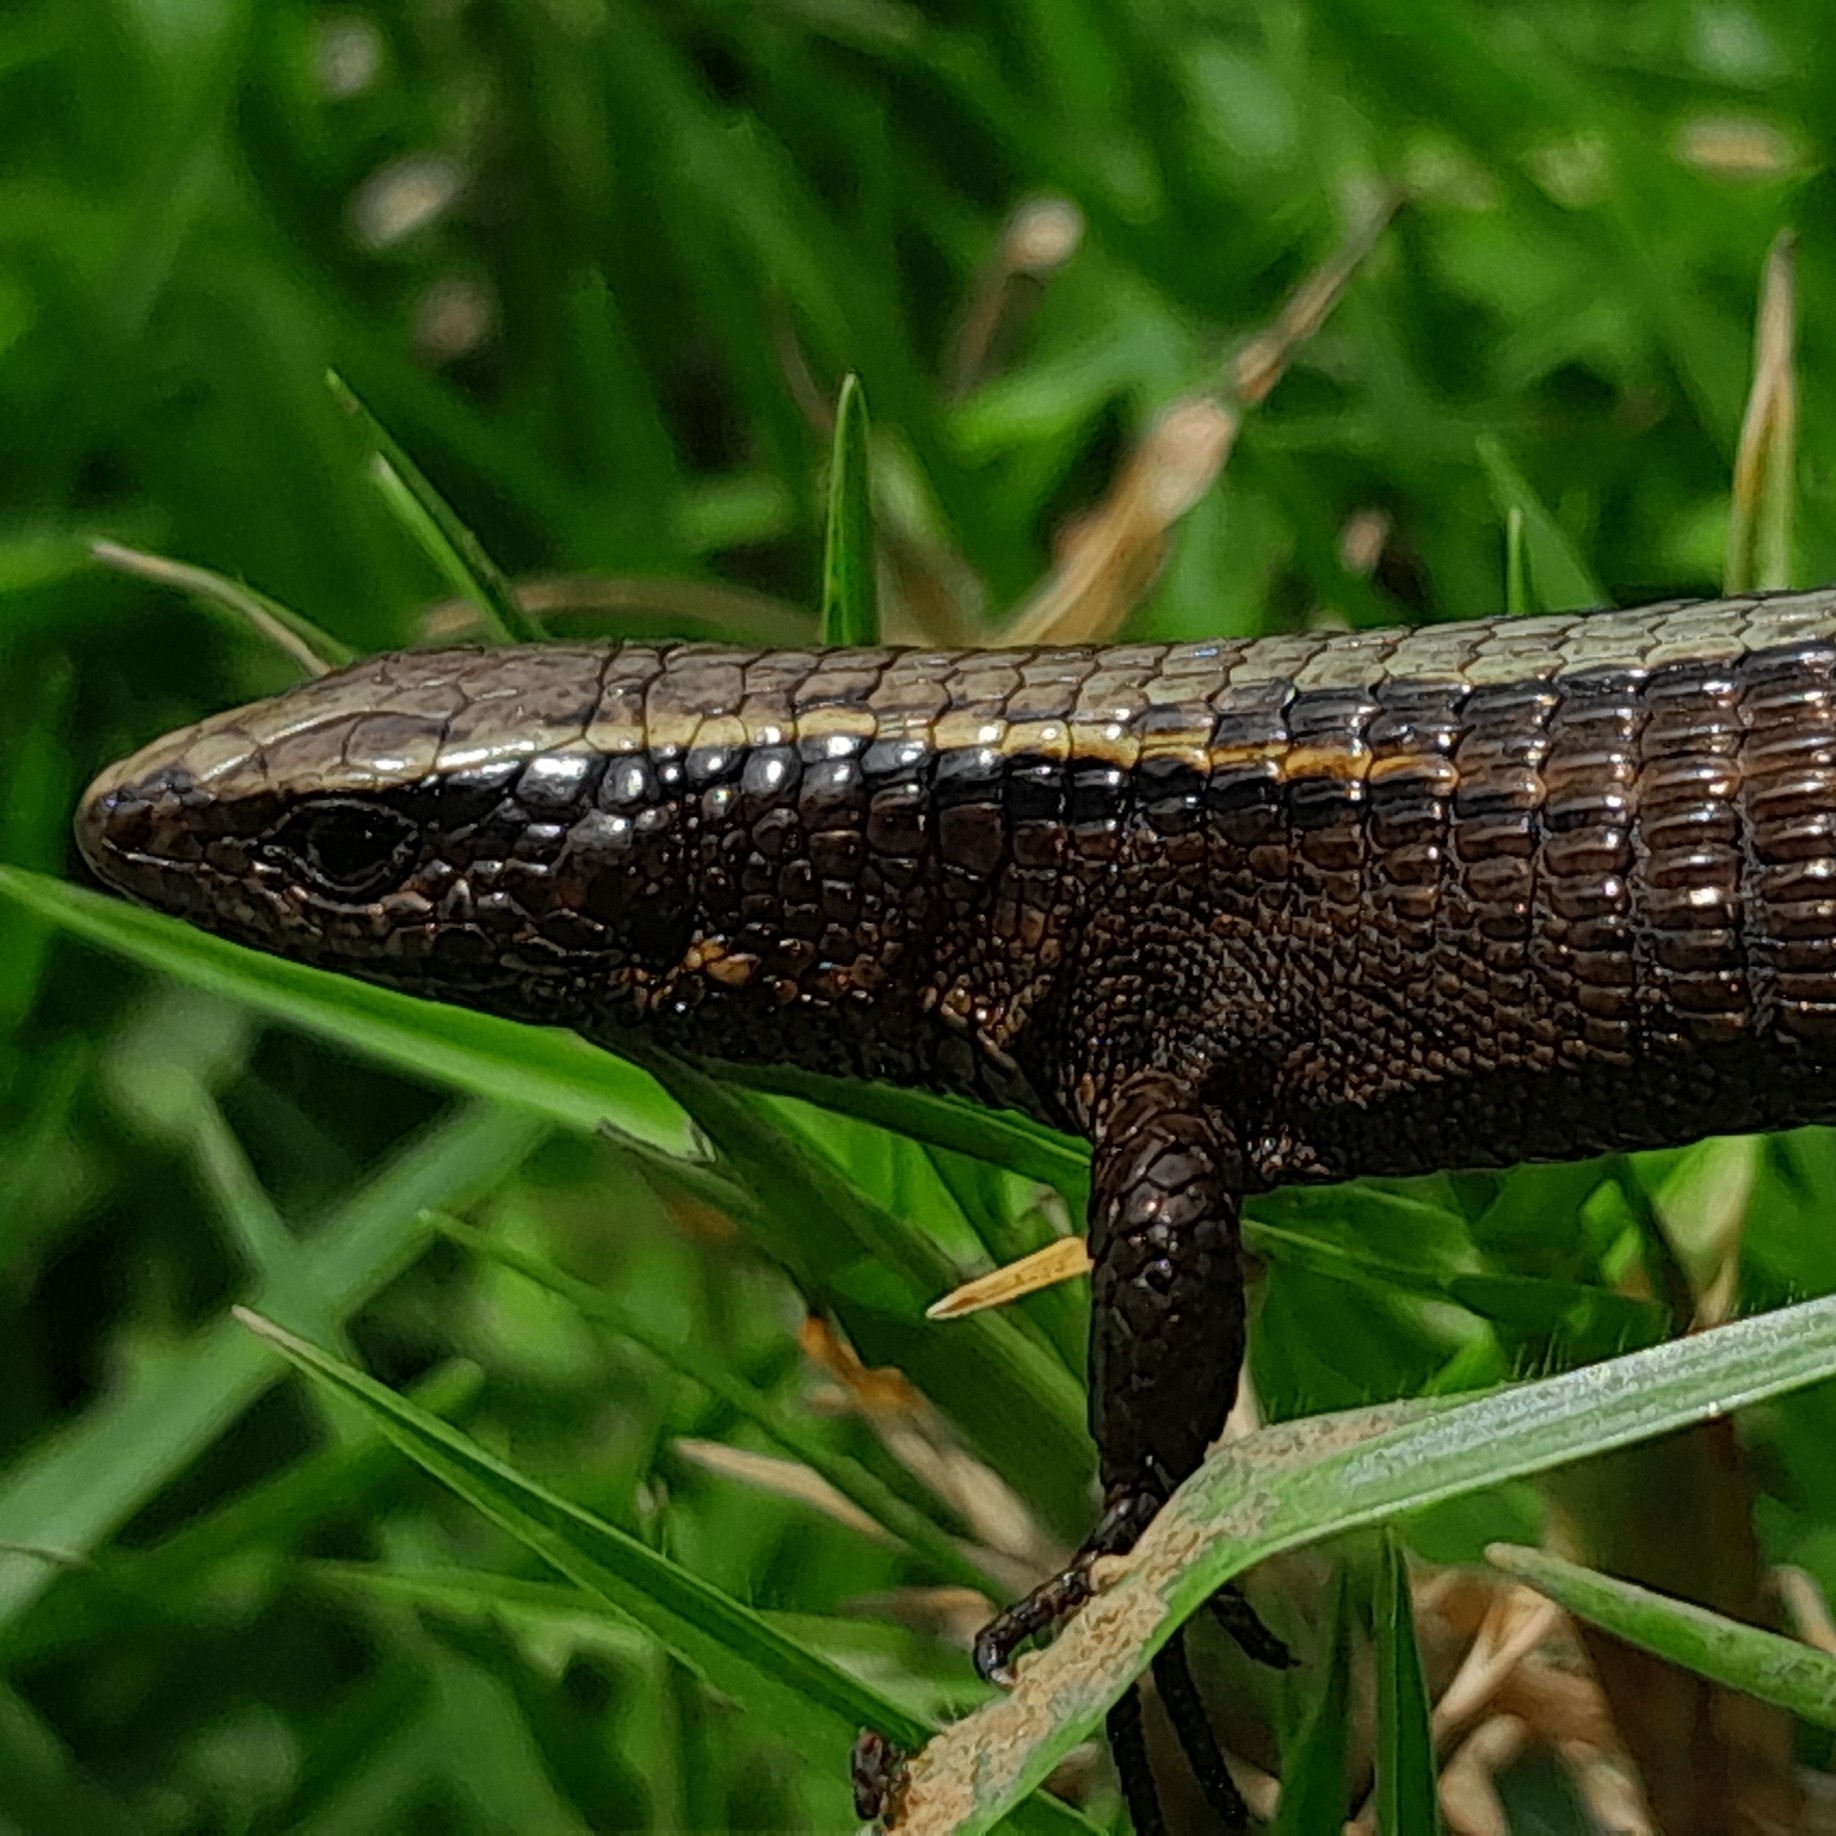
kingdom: Animalia
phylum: Chordata
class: Squamata
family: Alopoglossidae
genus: Alopoglossus
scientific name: Alopoglossus romaleos
